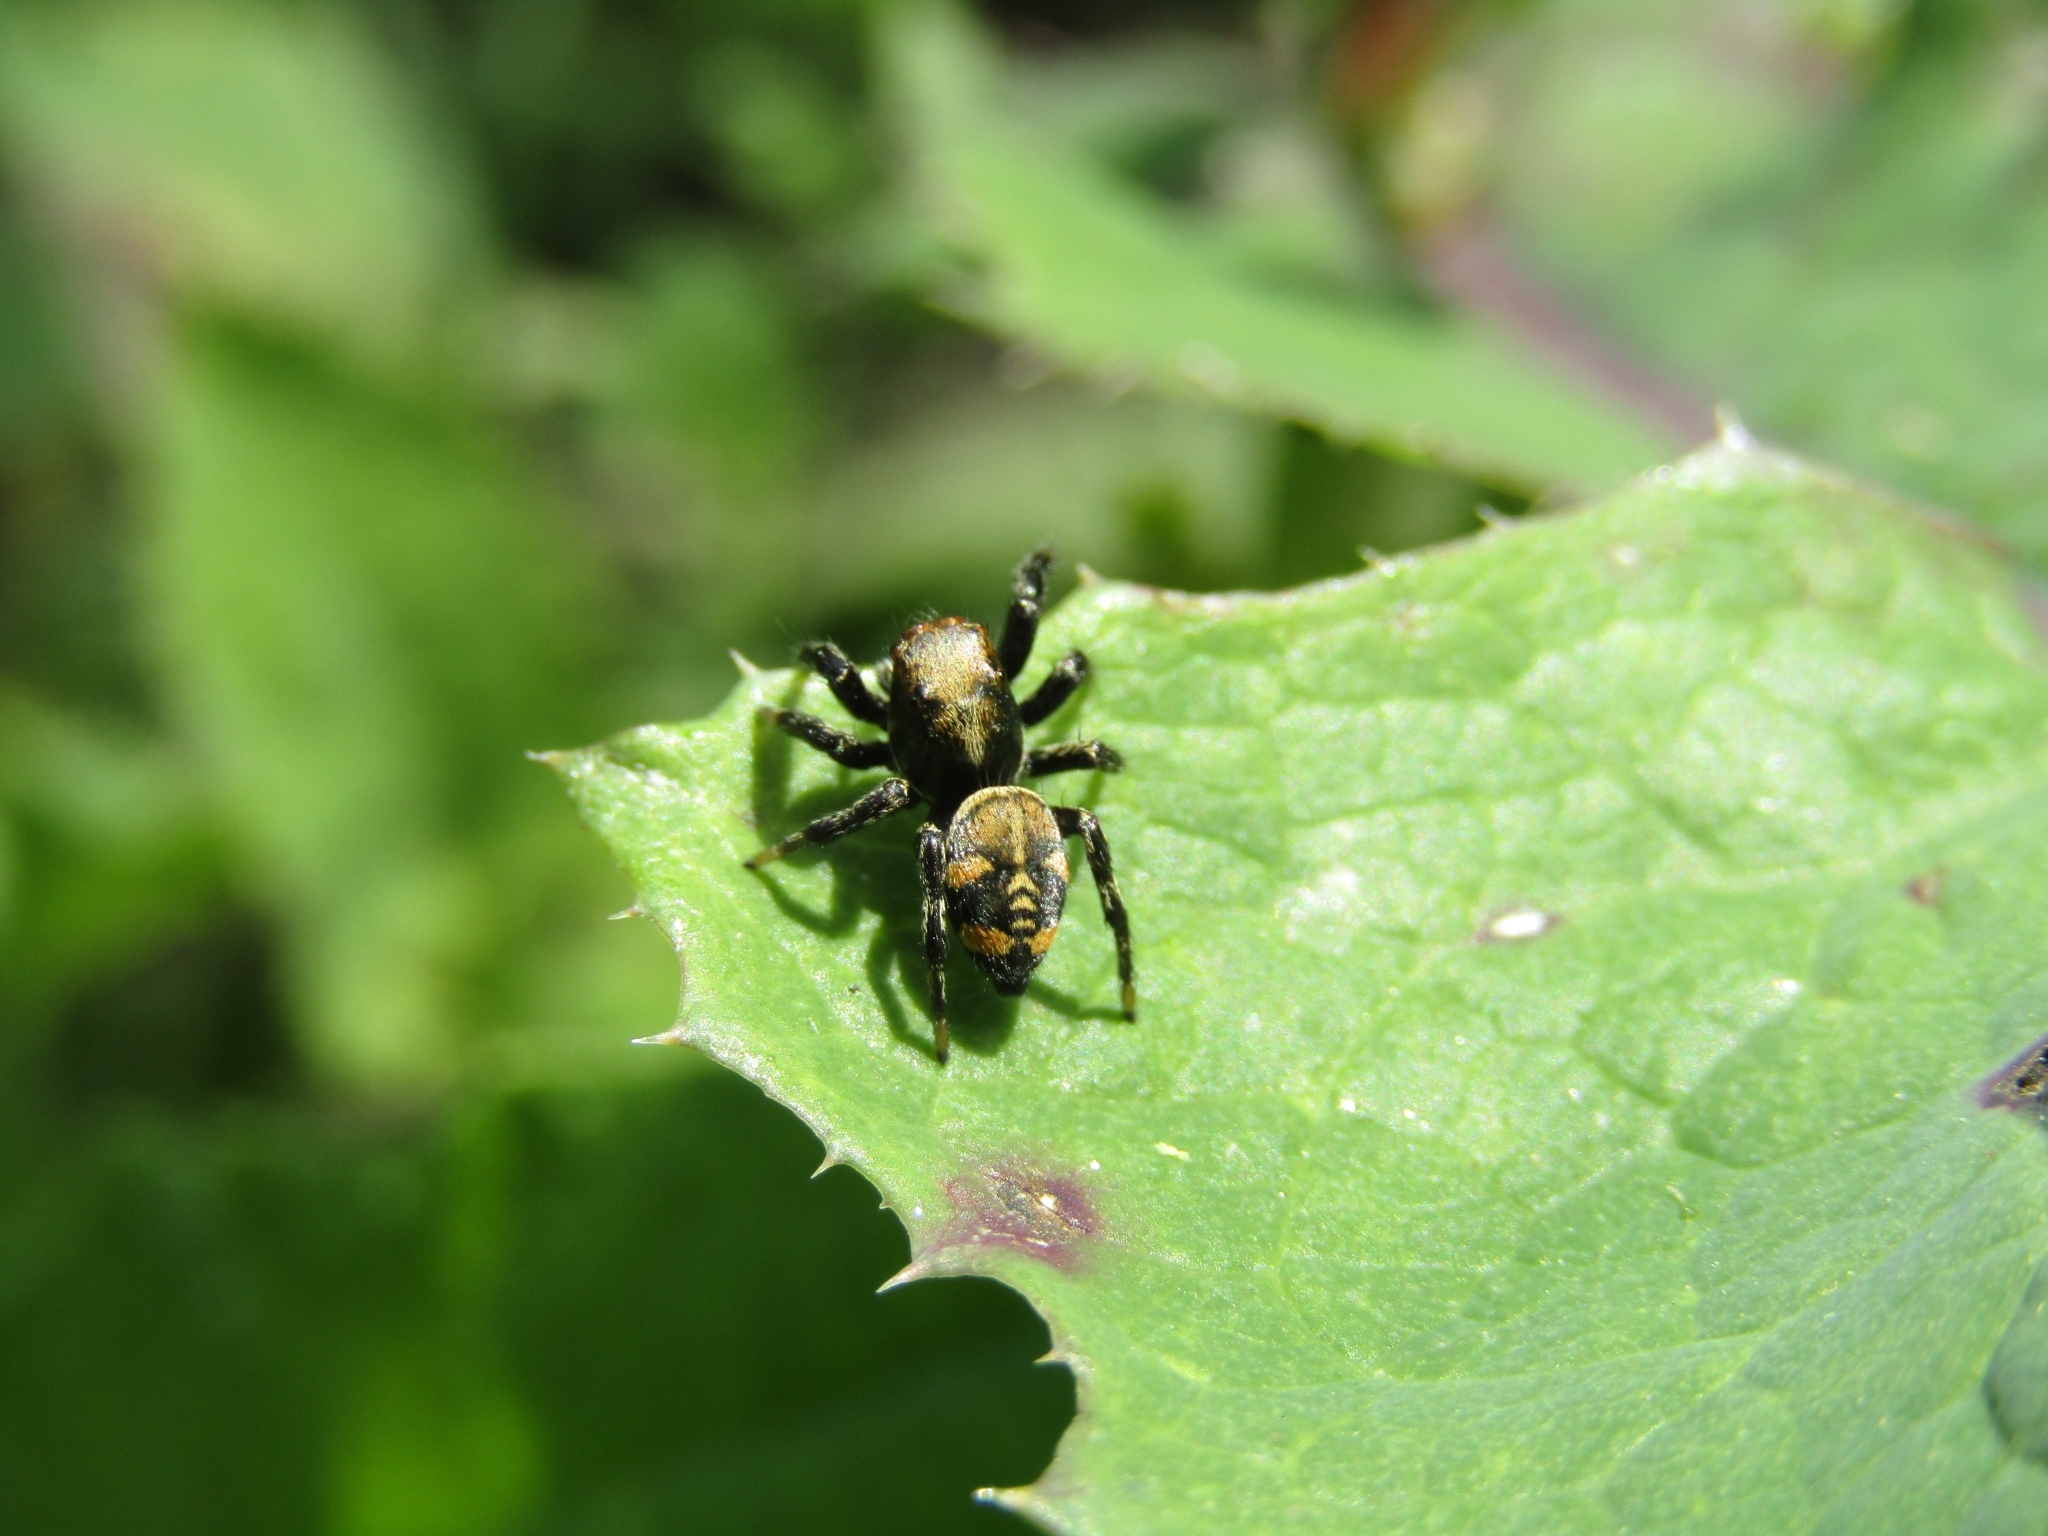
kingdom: Animalia
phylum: Arthropoda
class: Arachnida
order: Araneae
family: Salticidae
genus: Phiale
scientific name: Phiale roburifoliata
